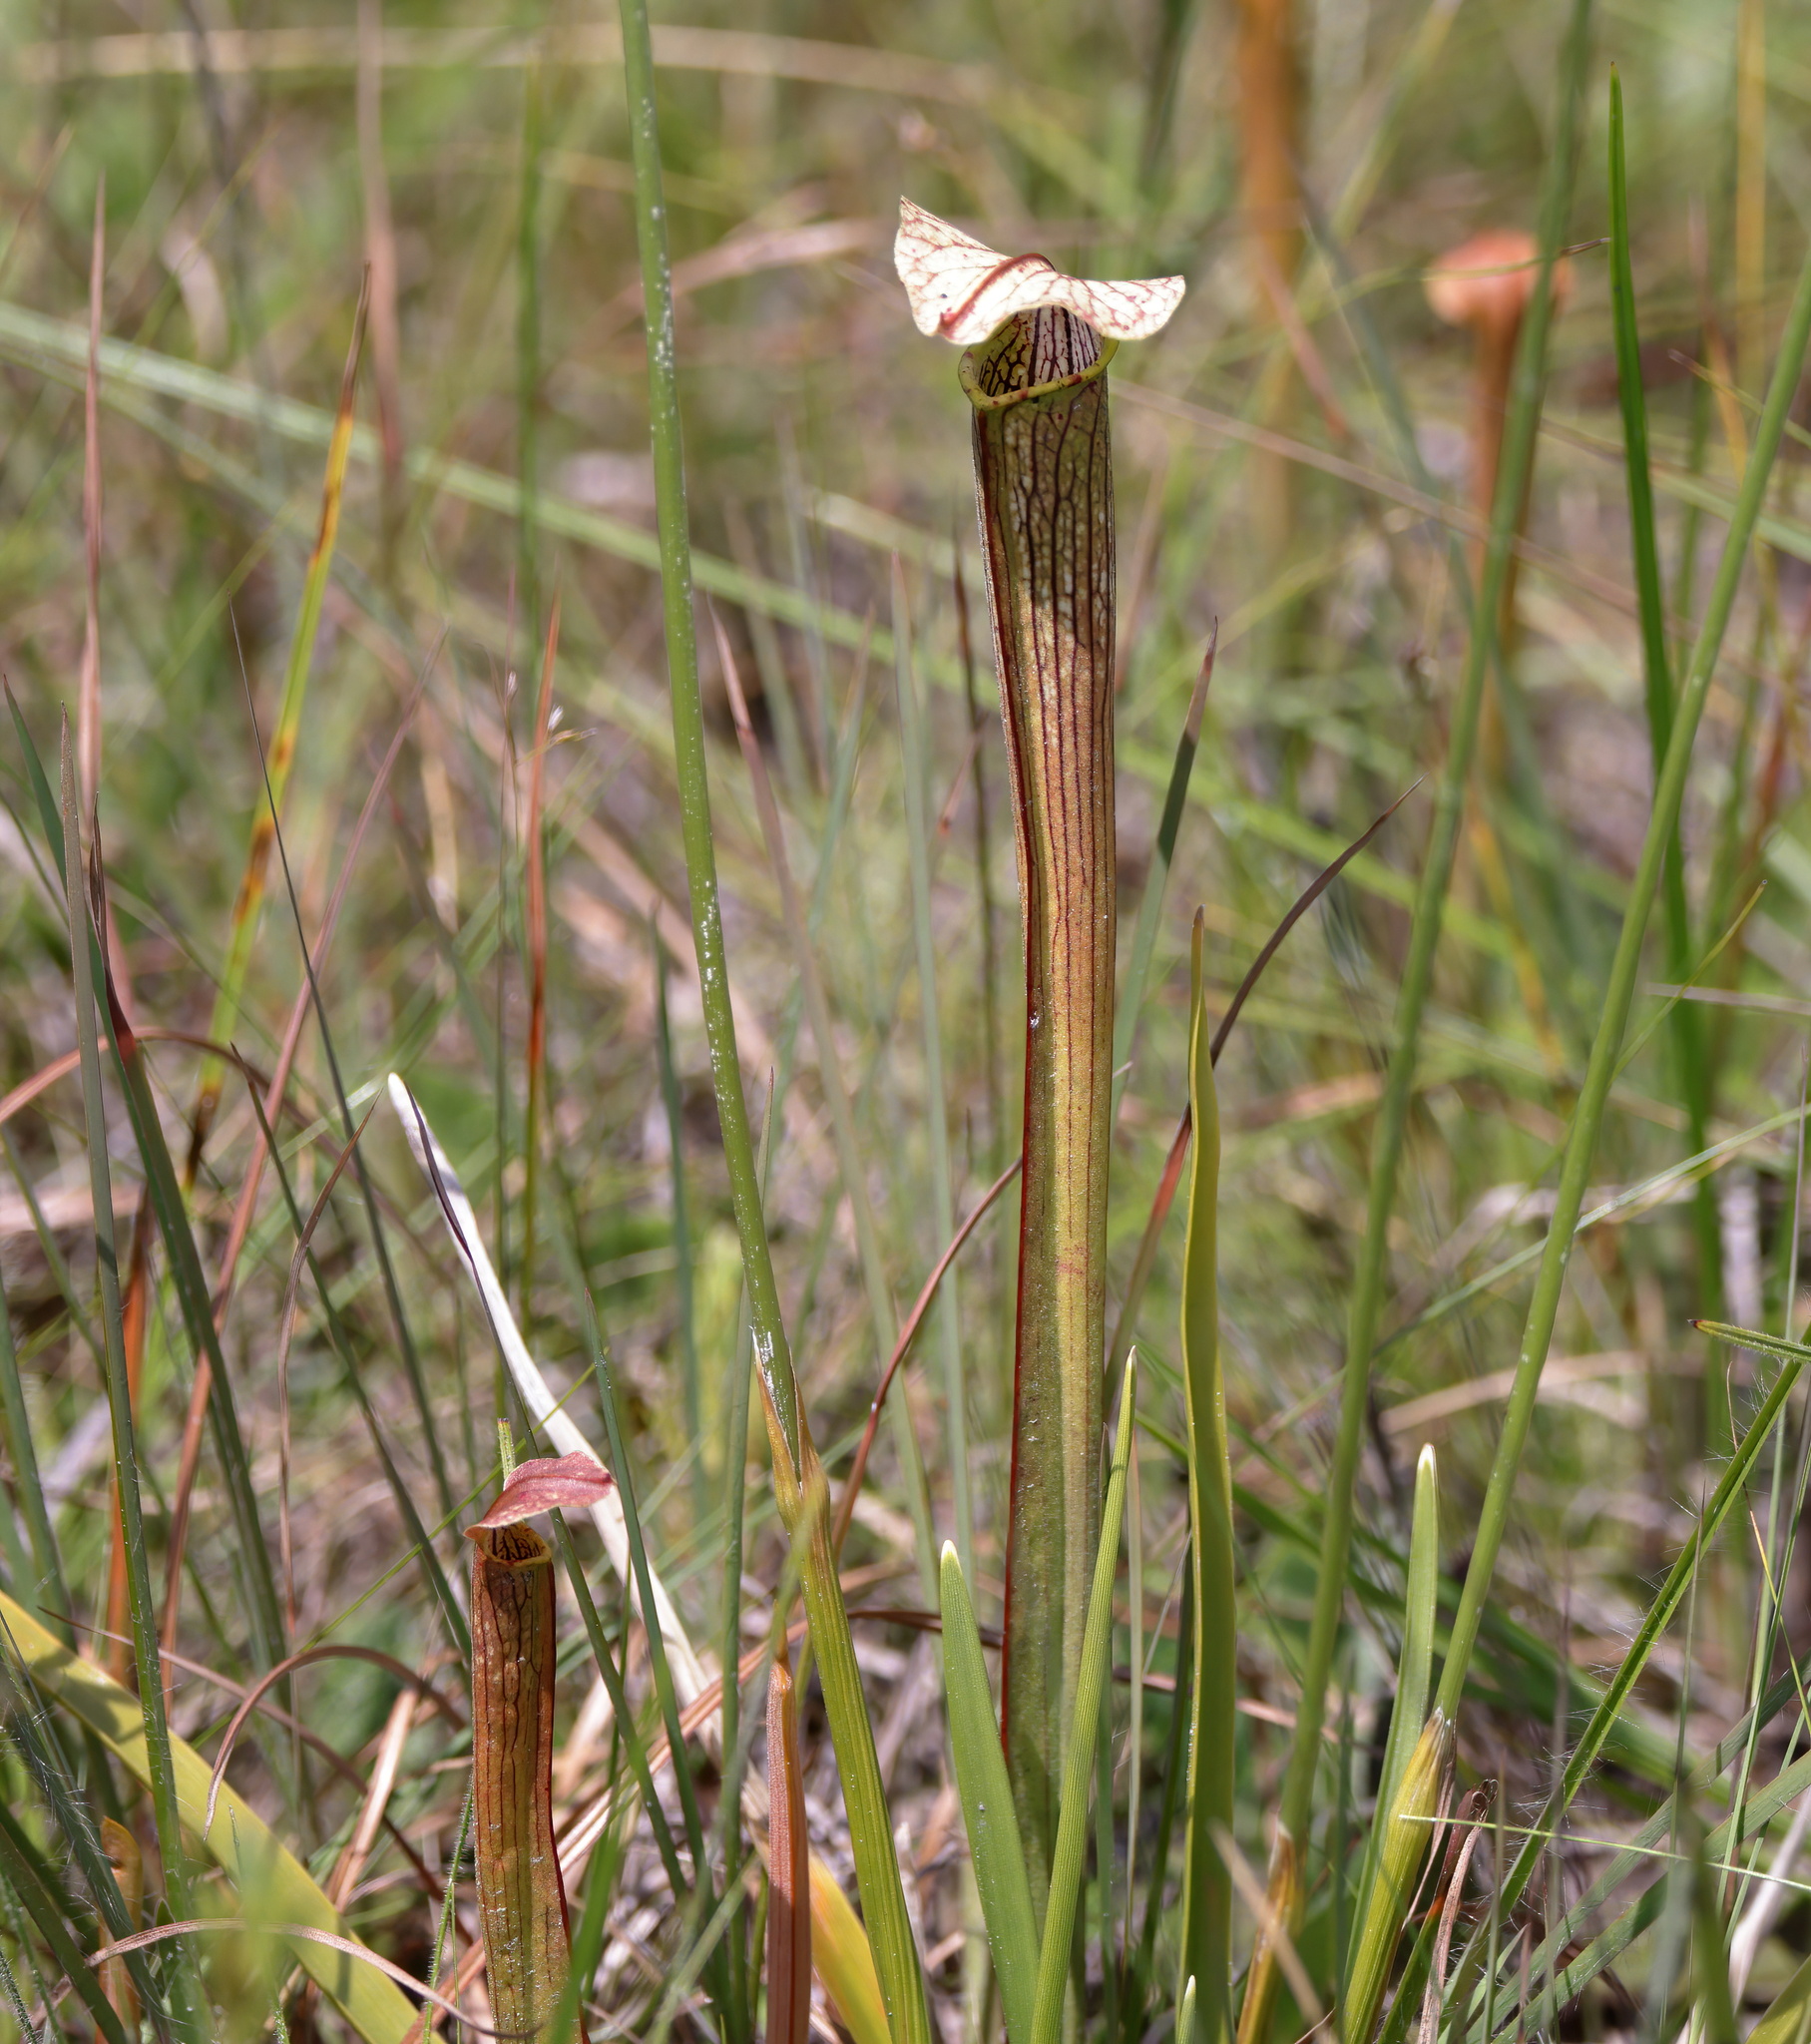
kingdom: Plantae
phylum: Tracheophyta
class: Magnoliopsida
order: Ericales
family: Sarraceniaceae
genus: Sarracenia
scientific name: Sarracenia areolata
